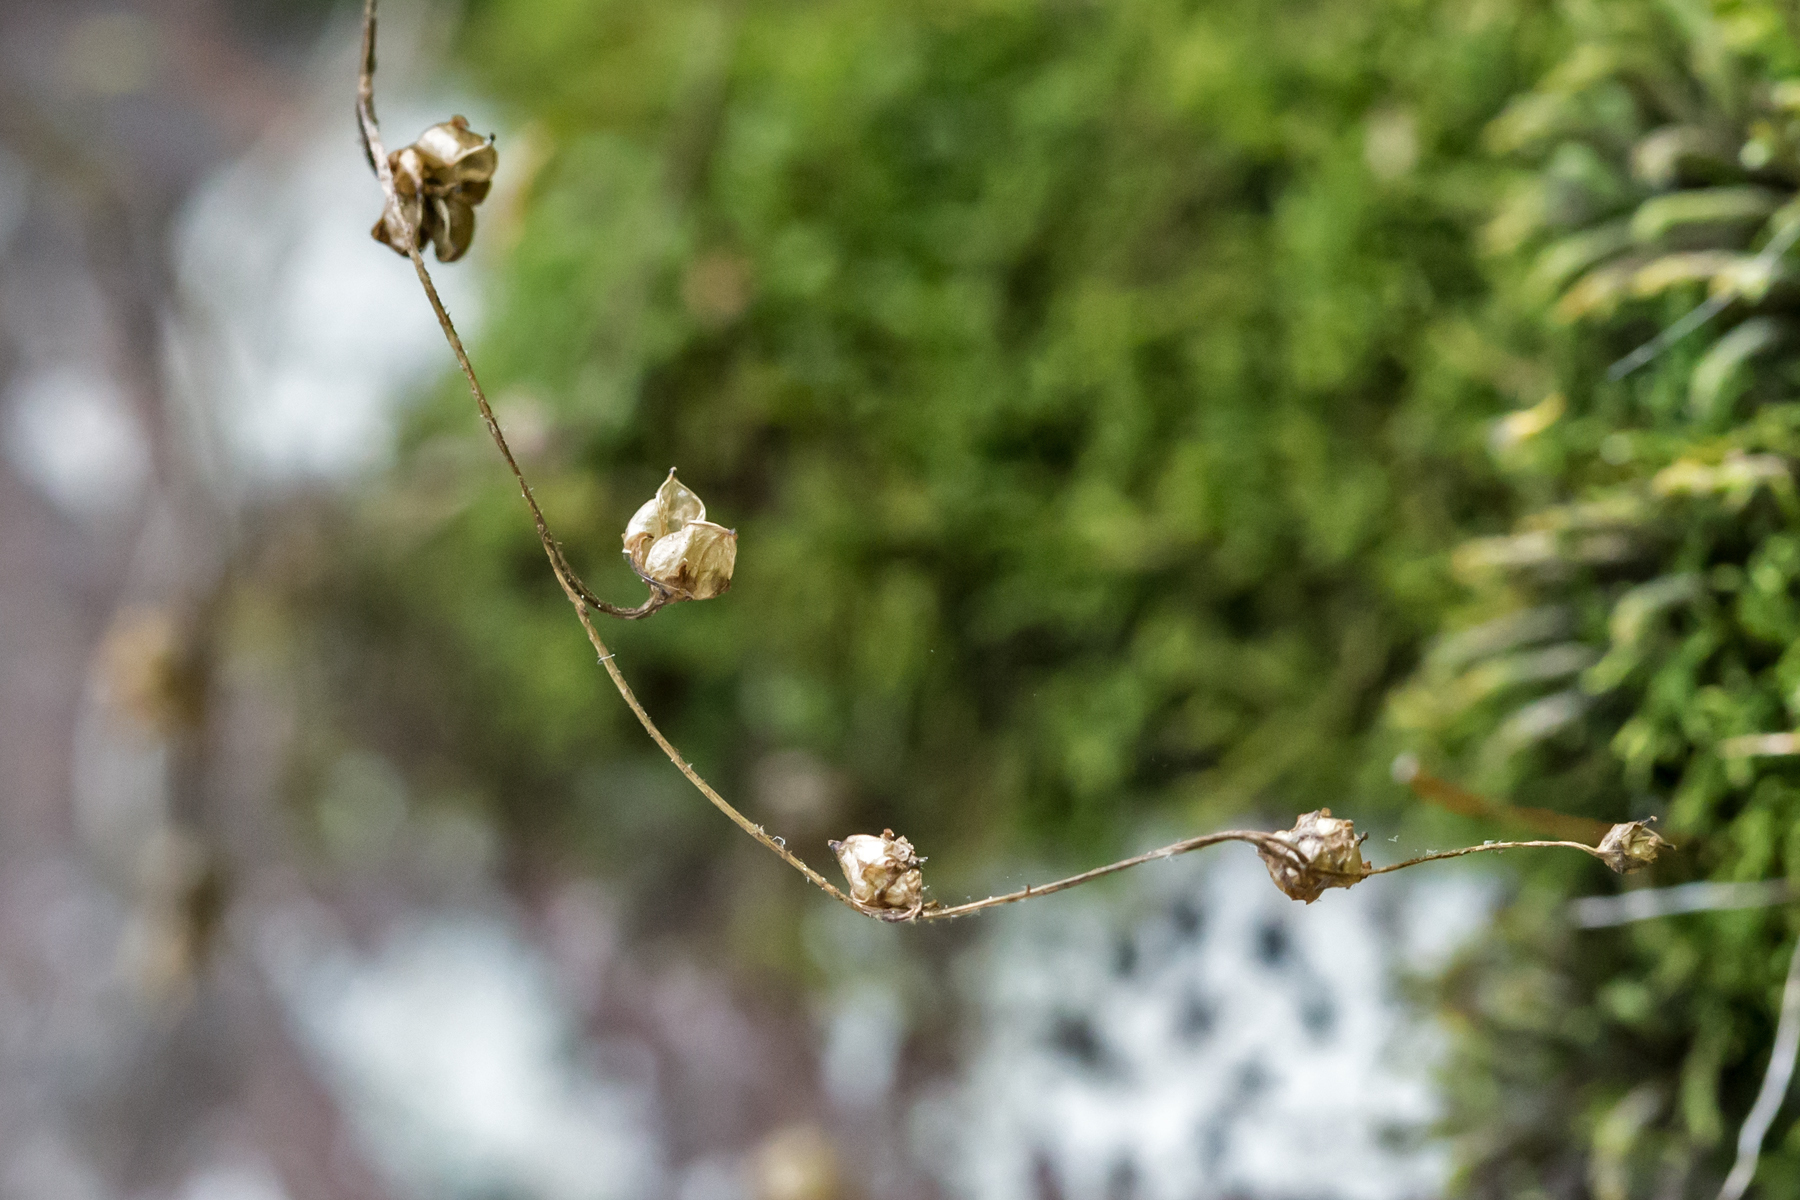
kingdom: Plantae
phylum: Tracheophyta
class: Magnoliopsida
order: Saxifragales
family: Saxifragaceae
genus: Micranthes
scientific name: Micranthes virginiensis
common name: Early saxifrage
